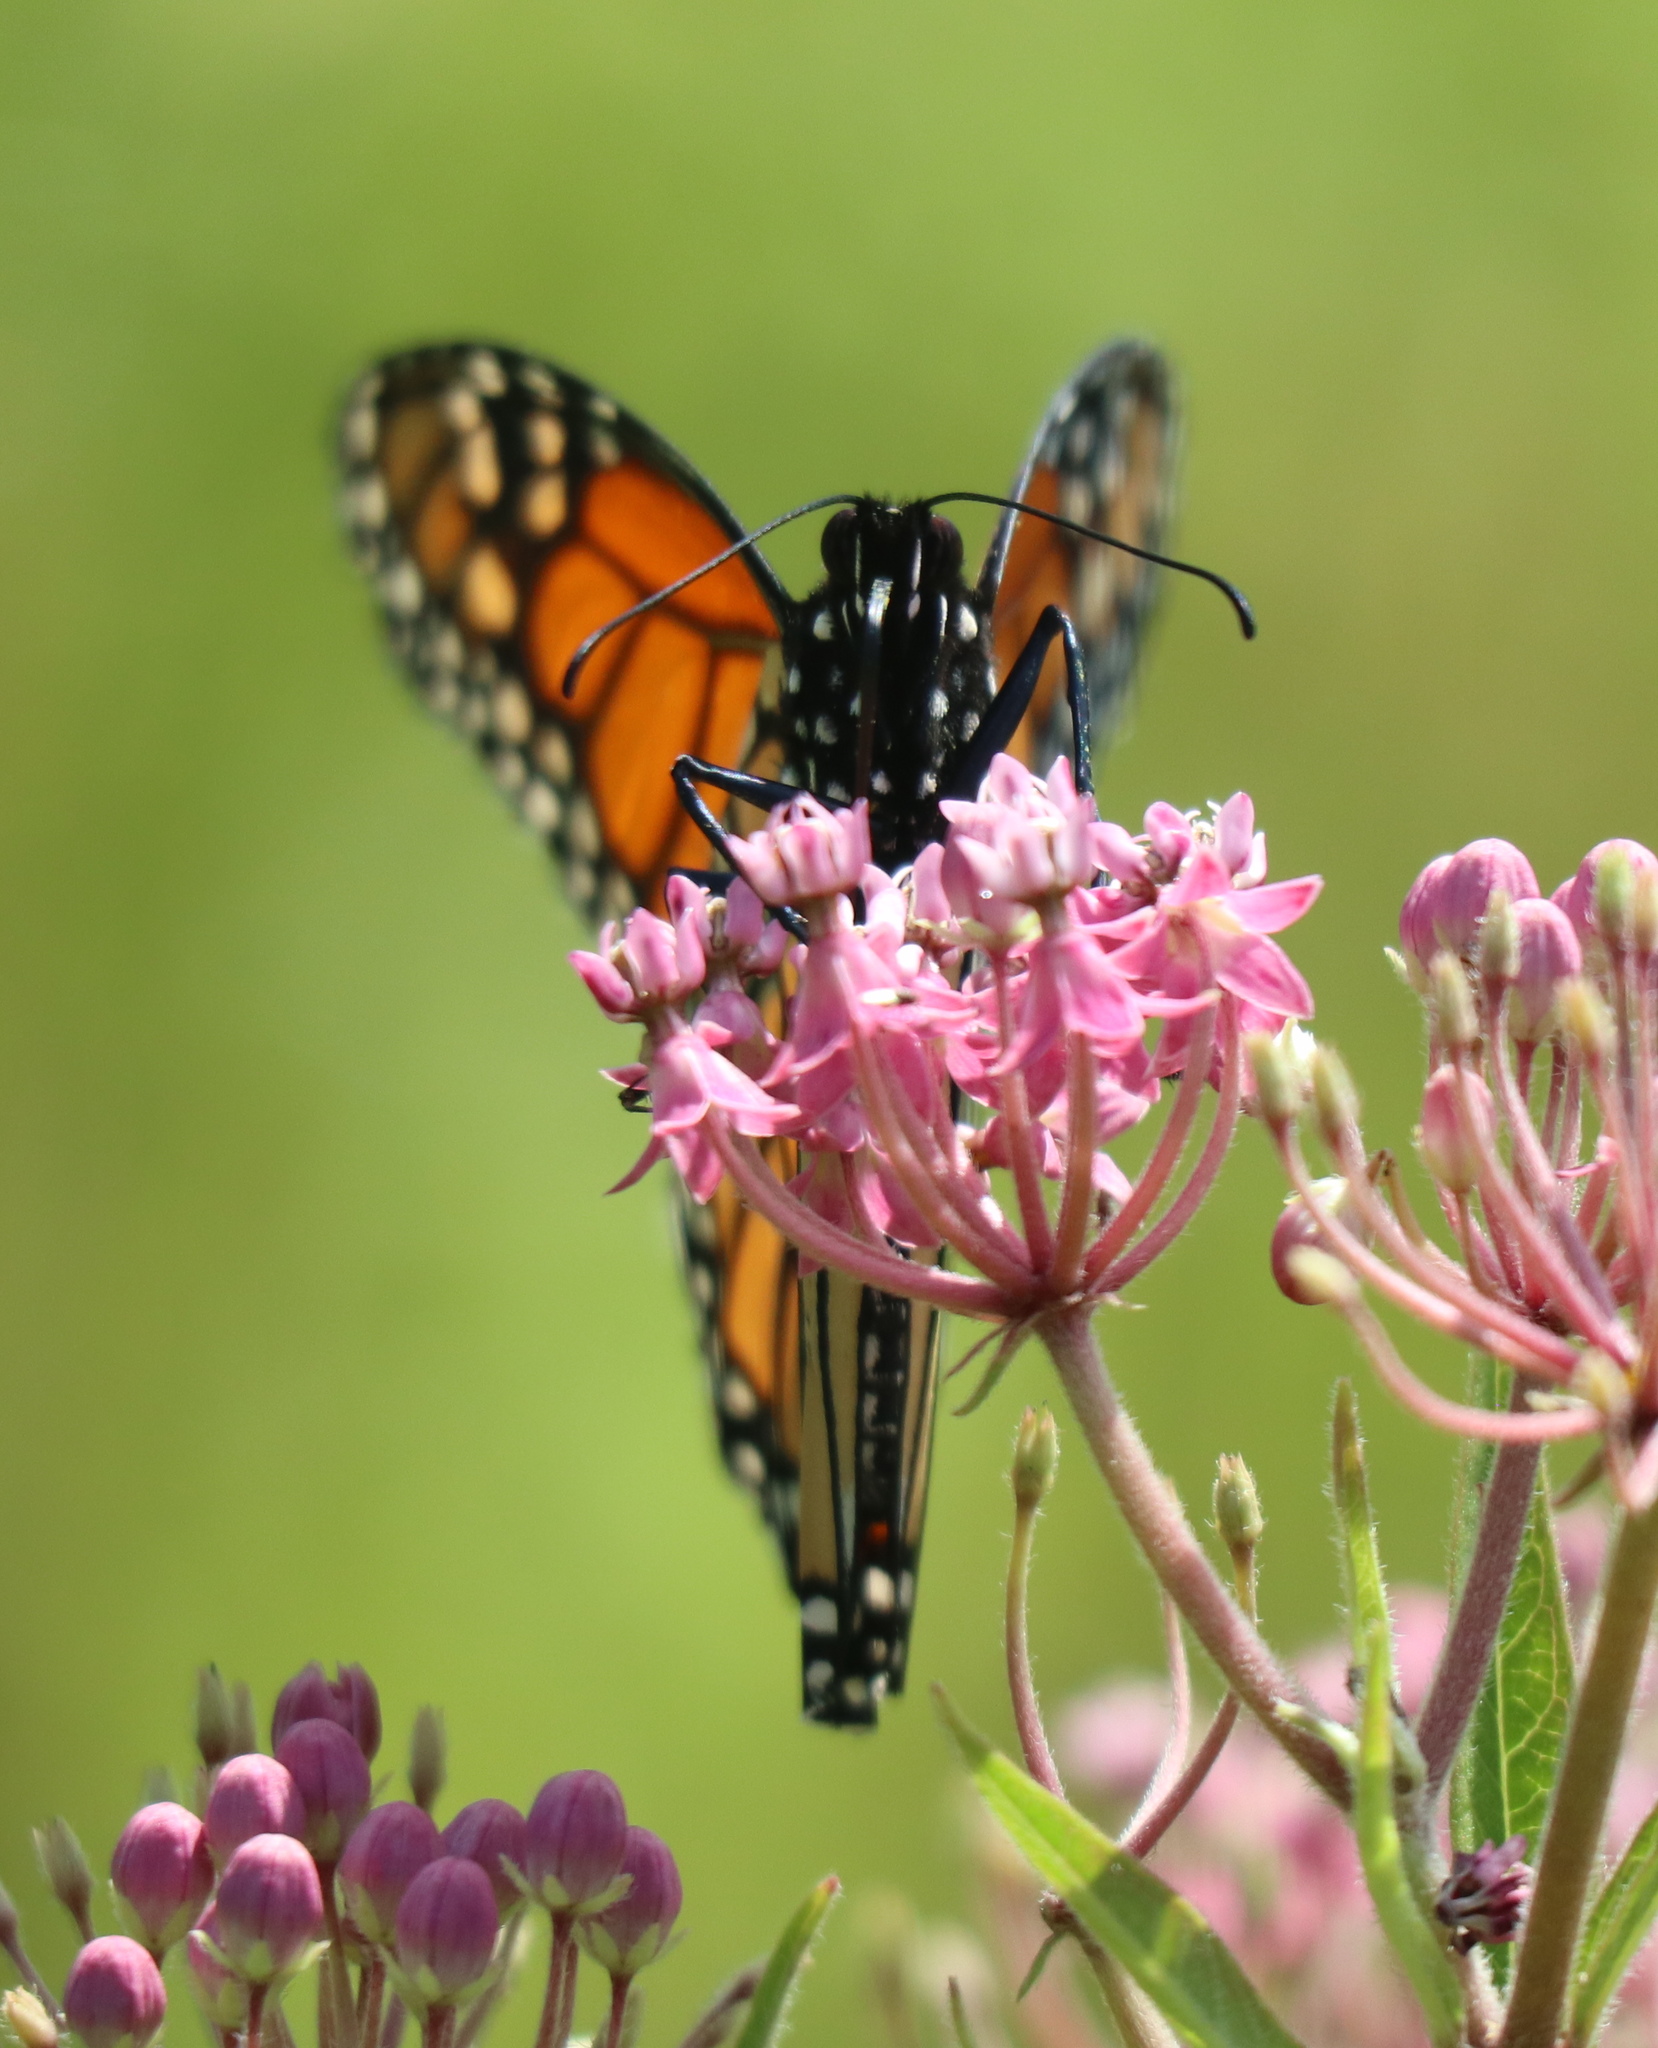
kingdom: Animalia
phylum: Arthropoda
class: Insecta
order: Lepidoptera
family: Nymphalidae
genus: Danaus
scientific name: Danaus plexippus
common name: Monarch
